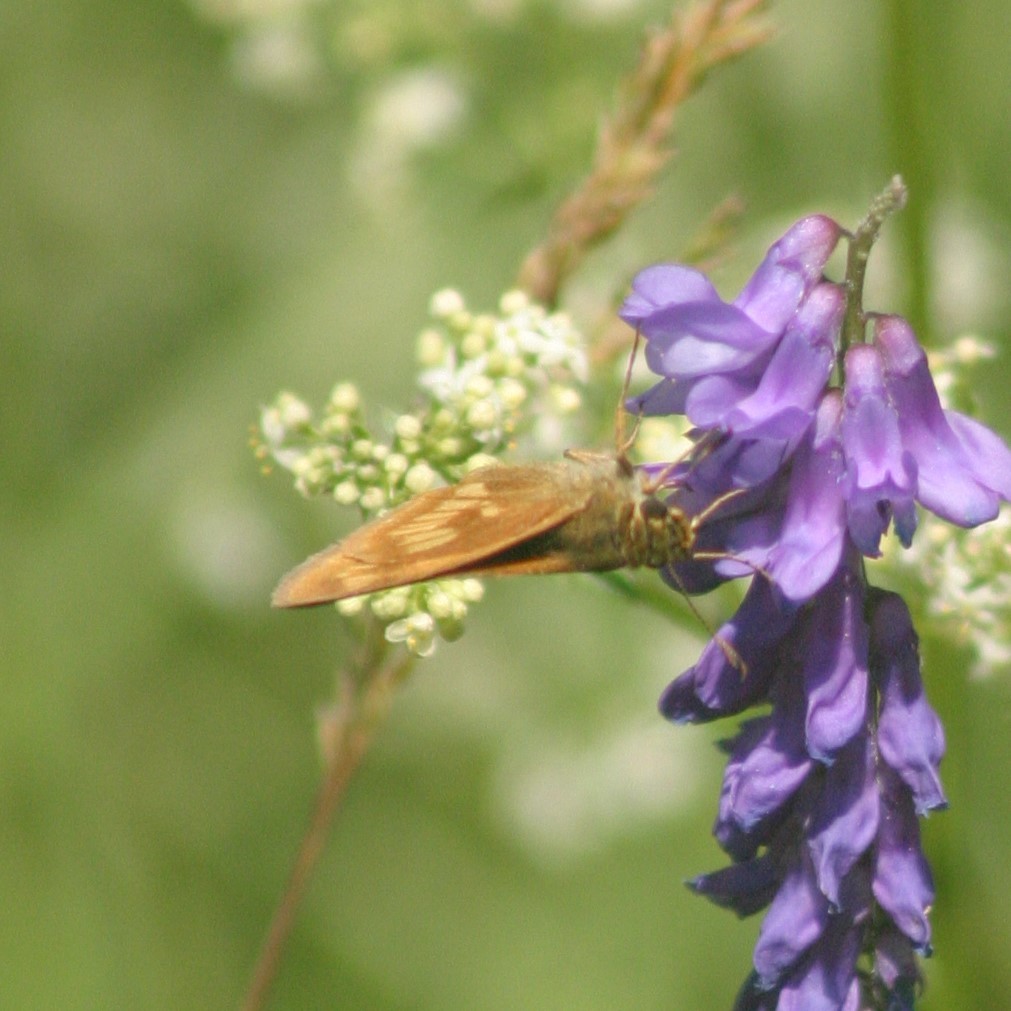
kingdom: Animalia
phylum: Arthropoda
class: Insecta
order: Lepidoptera
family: Hesperiidae
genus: Polites
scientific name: Polites mystic
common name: Long dash
